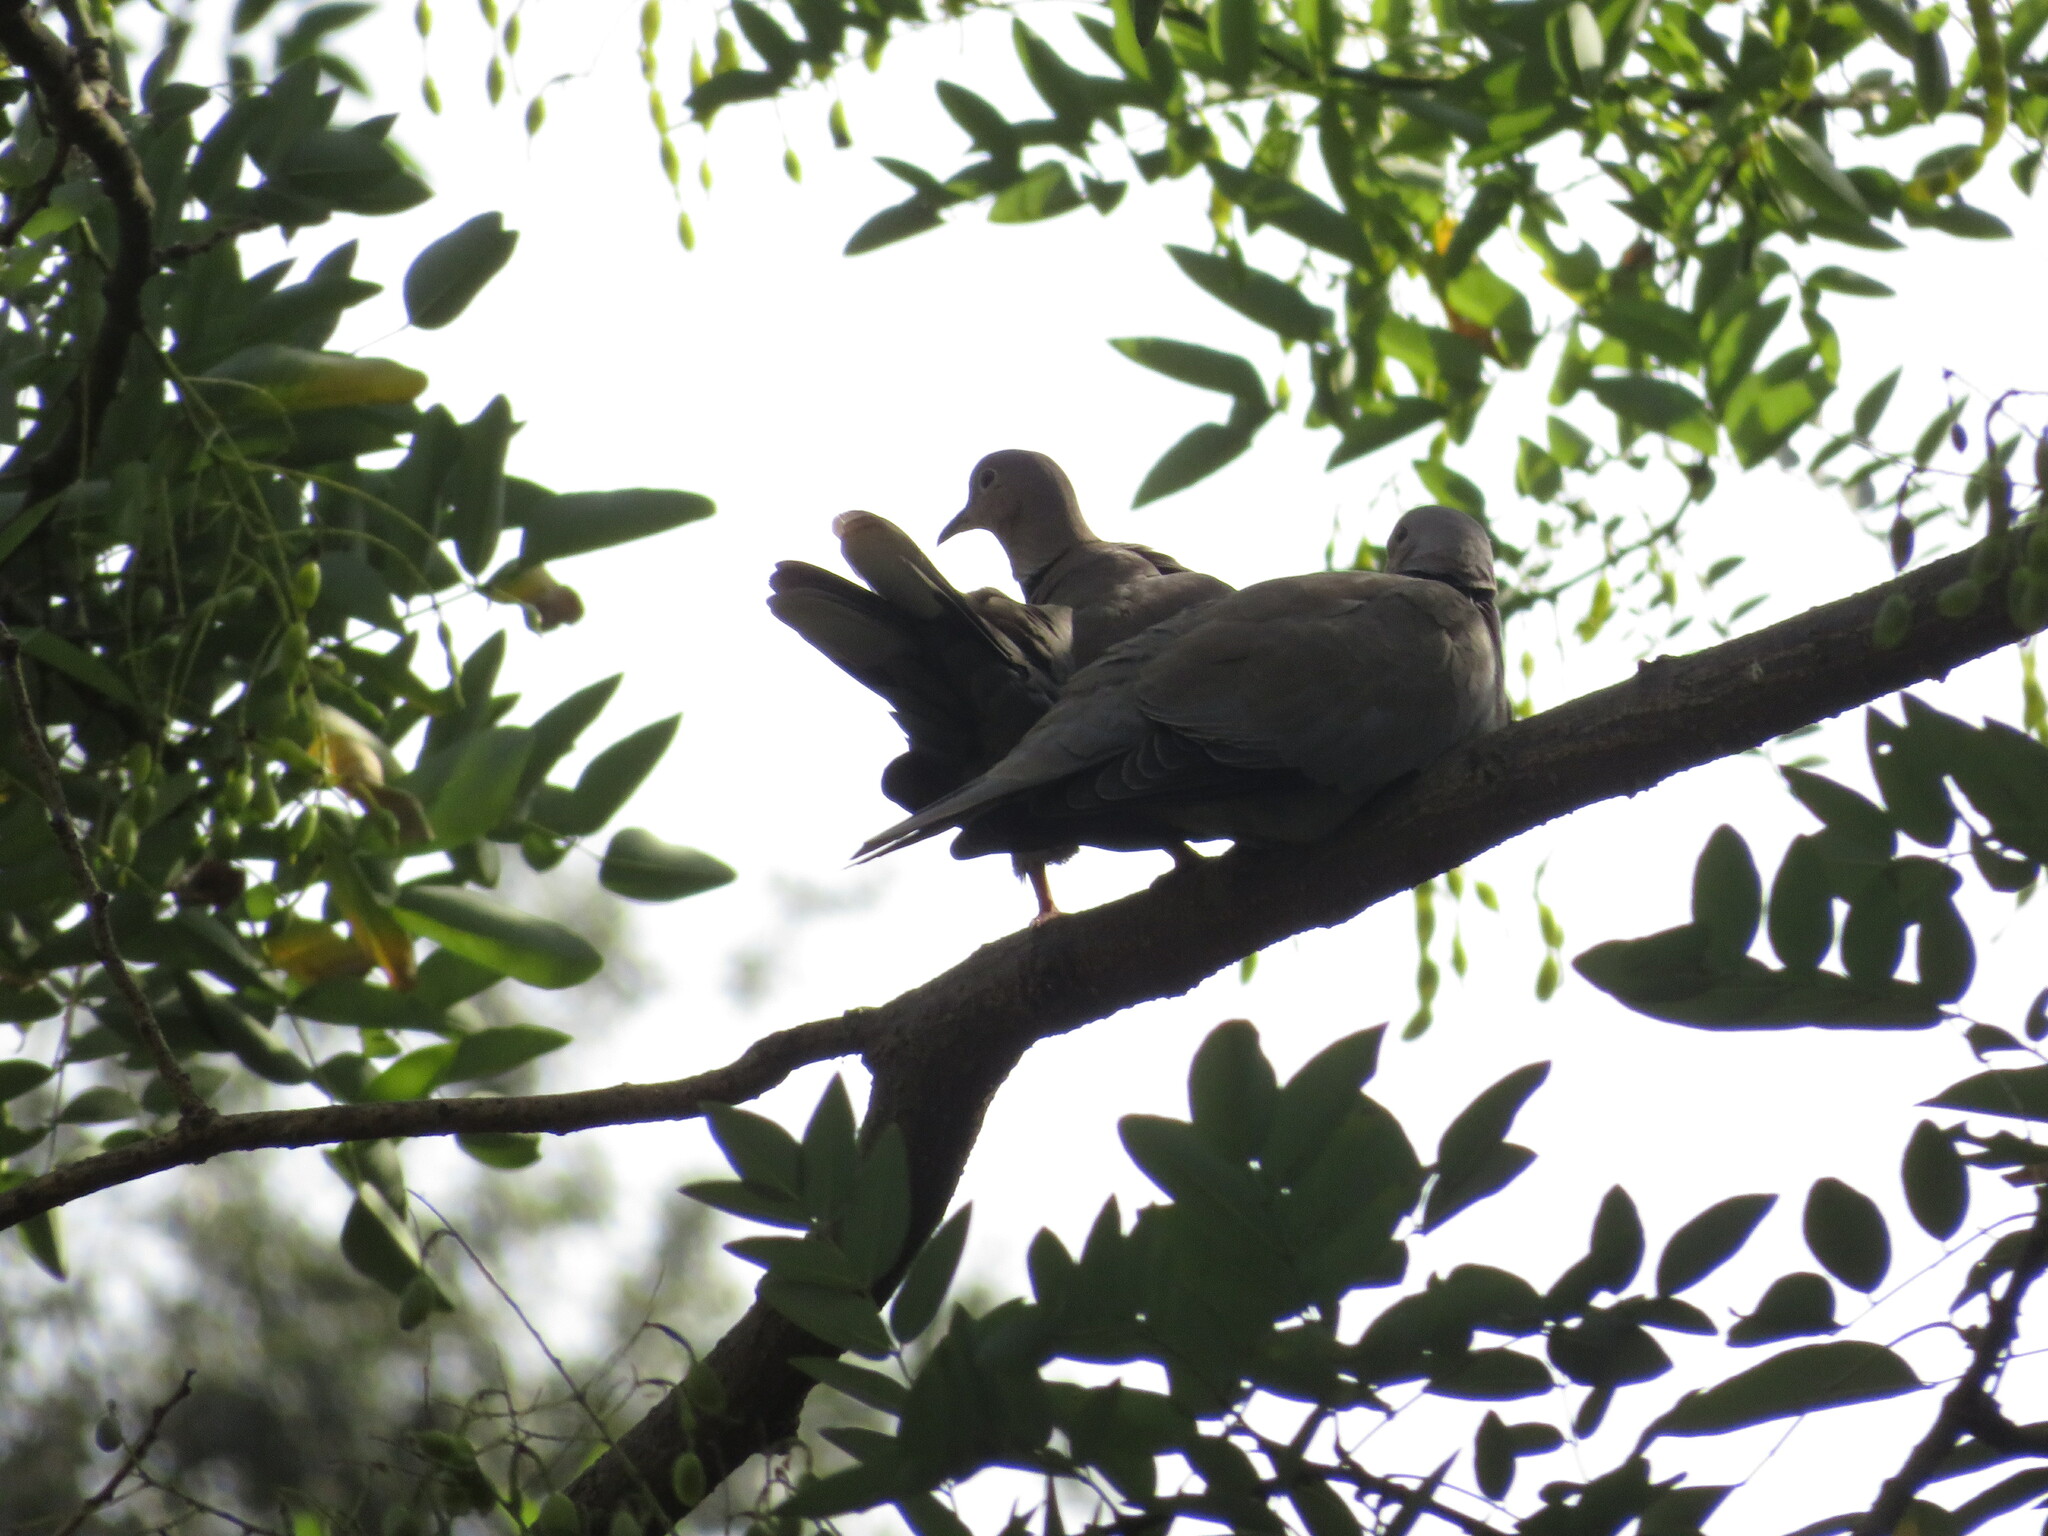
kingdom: Animalia
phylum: Chordata
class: Aves
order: Columbiformes
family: Columbidae
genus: Streptopelia
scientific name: Streptopelia decaocto
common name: Eurasian collared dove
